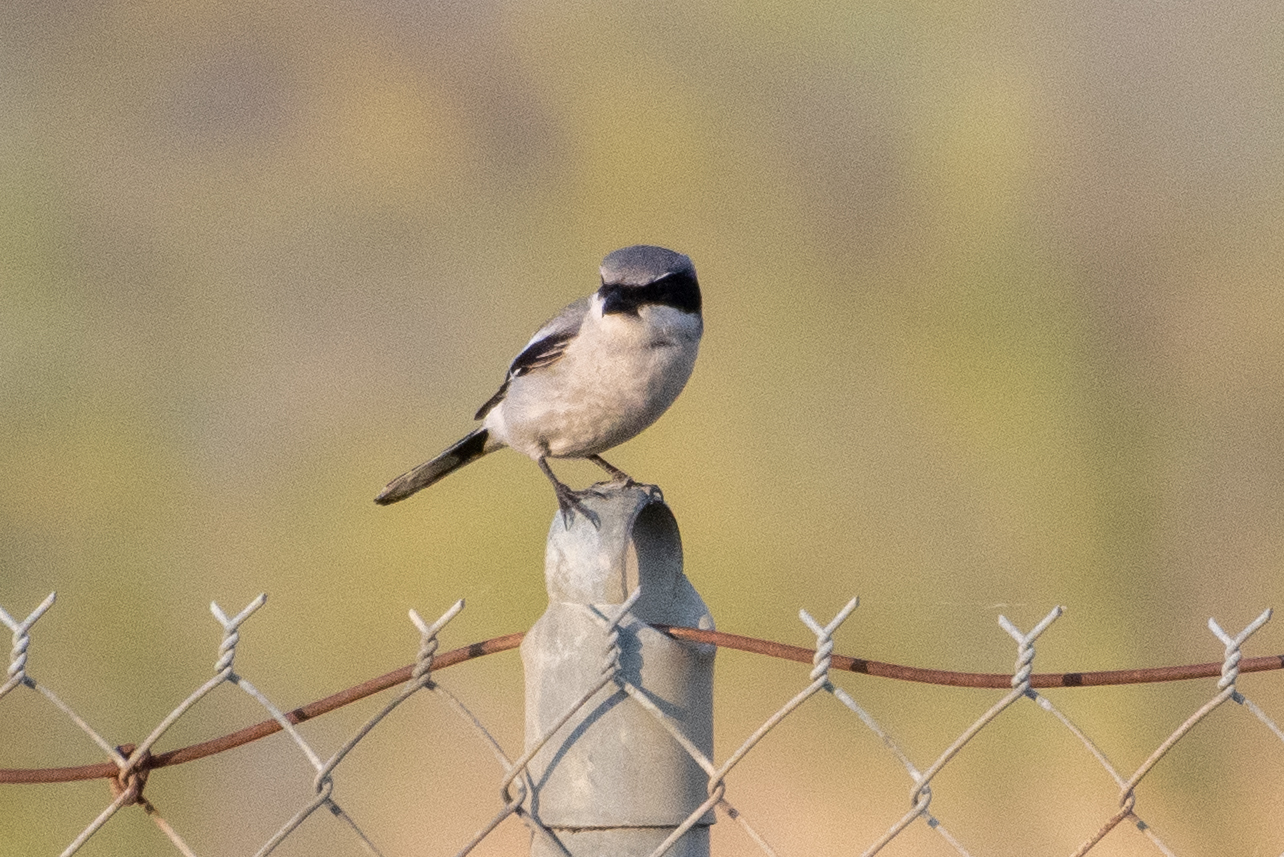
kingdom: Animalia
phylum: Chordata
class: Aves
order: Passeriformes
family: Laniidae
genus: Lanius
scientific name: Lanius ludovicianus
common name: Loggerhead shrike
